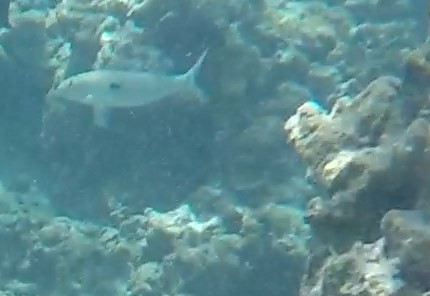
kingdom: Animalia
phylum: Chordata
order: Perciformes
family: Mullidae
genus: Mulloidichthys
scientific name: Mulloidichthys flavolineatus
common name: Yellowstripe goatfish
